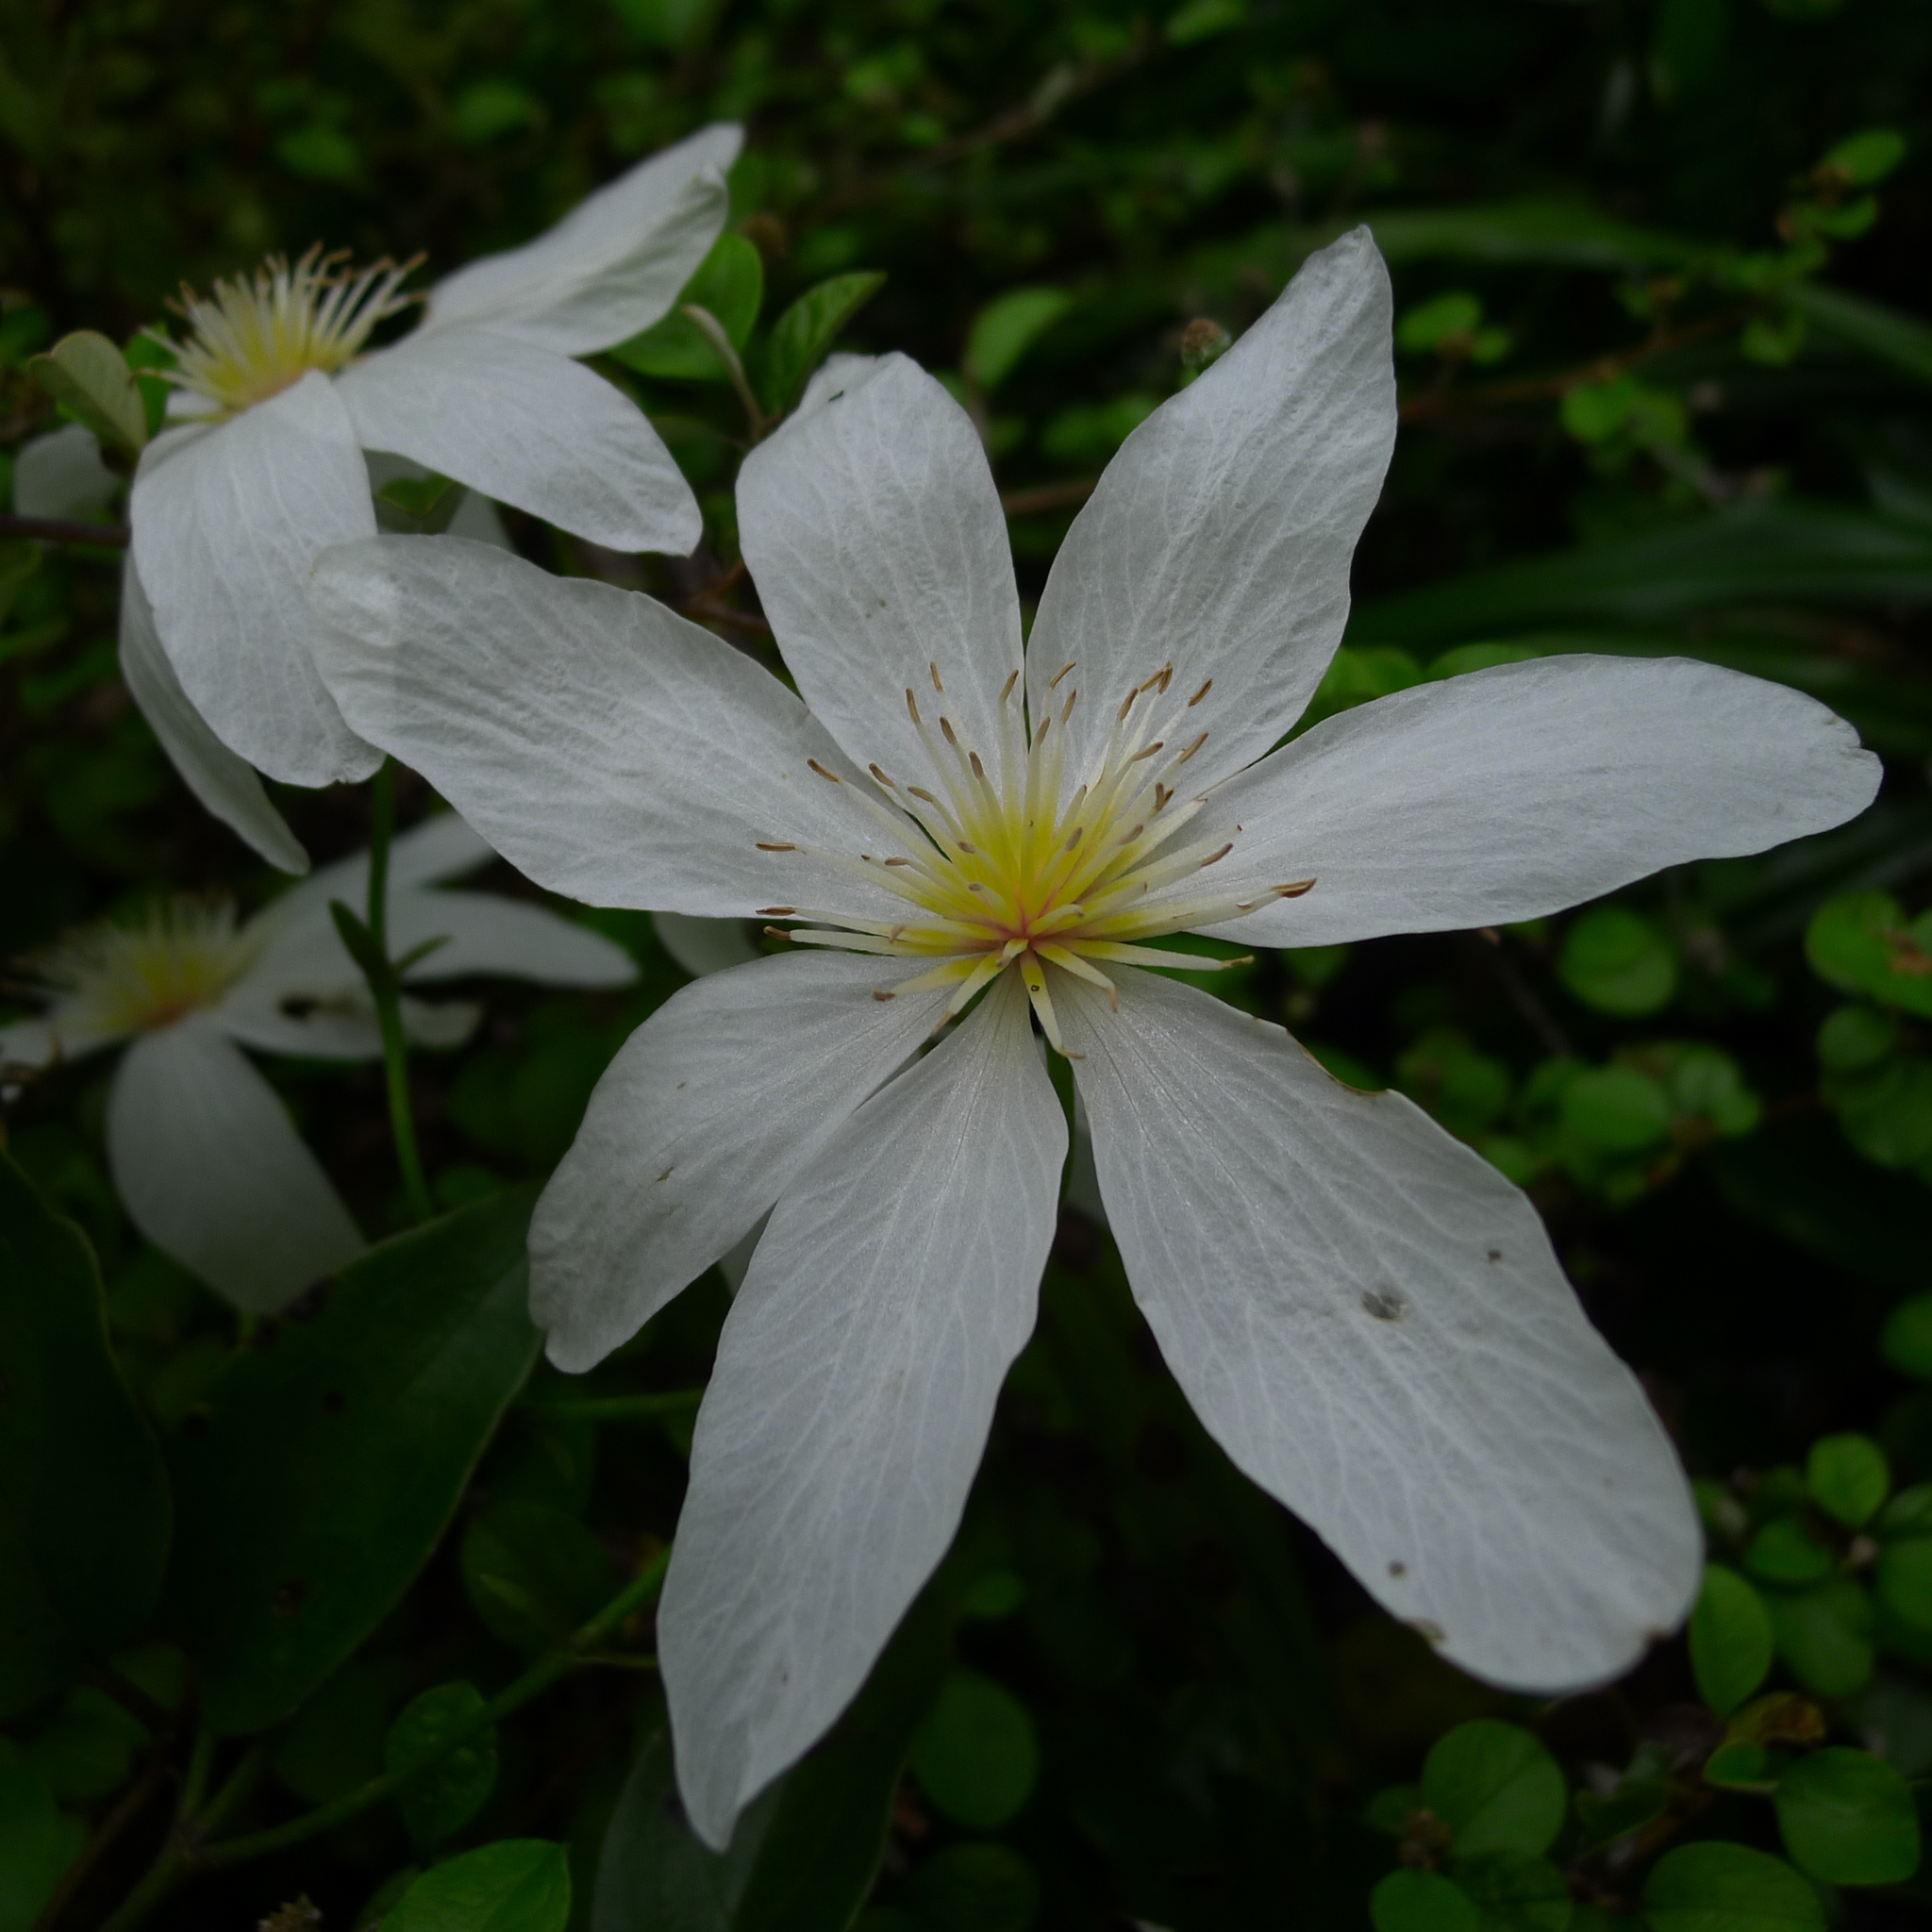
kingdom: Plantae
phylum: Tracheophyta
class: Magnoliopsida
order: Ranunculales
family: Ranunculaceae
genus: Clematis
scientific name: Clematis paniculata
